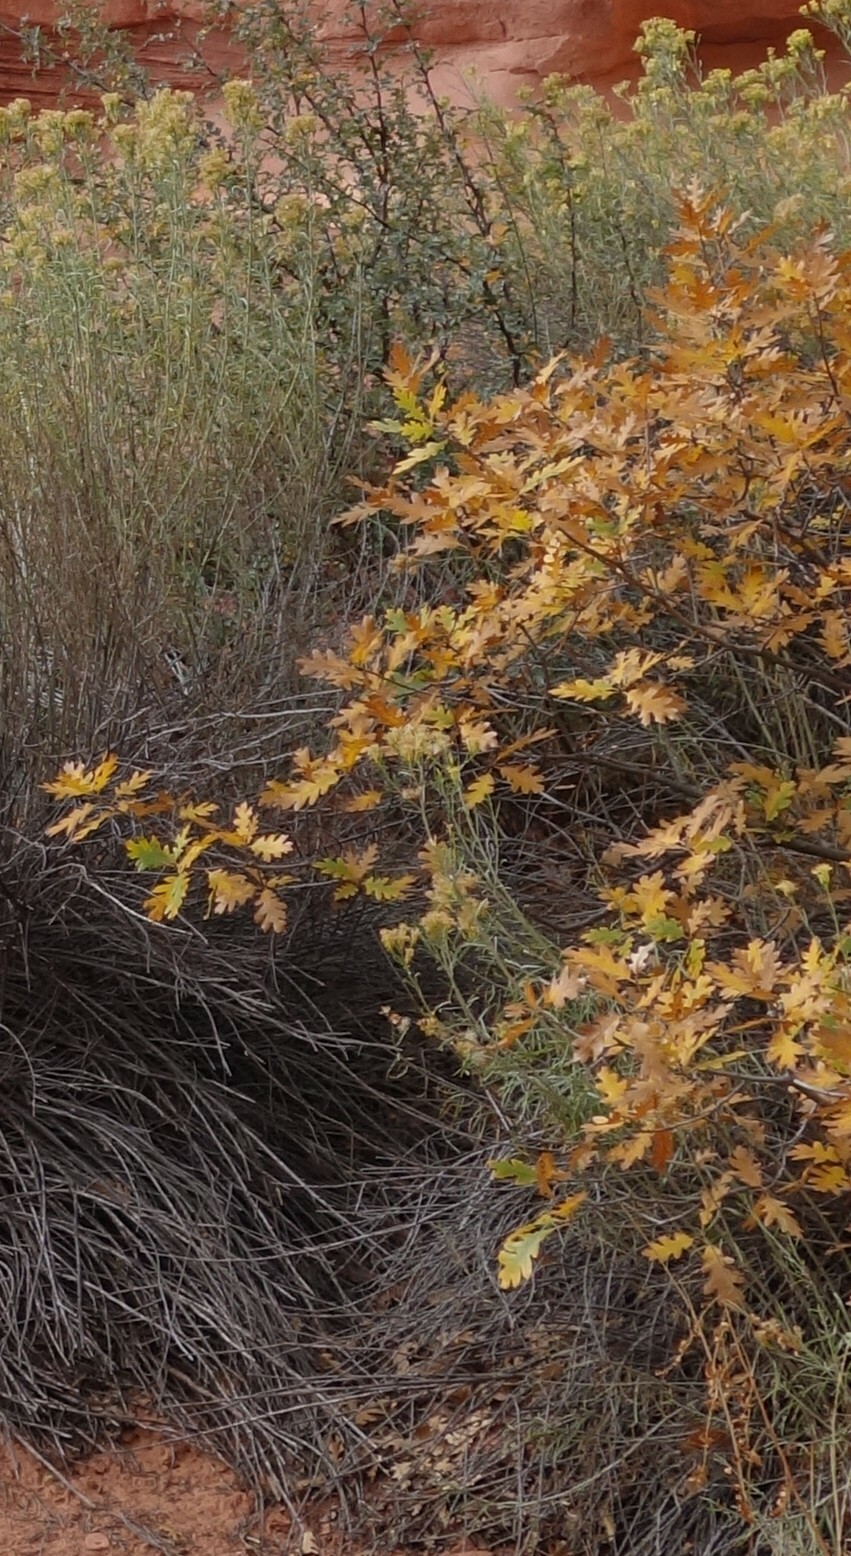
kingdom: Plantae
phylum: Tracheophyta
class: Magnoliopsida
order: Fagales
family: Fagaceae
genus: Quercus
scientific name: Quercus gambelii
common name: Gambel oak
